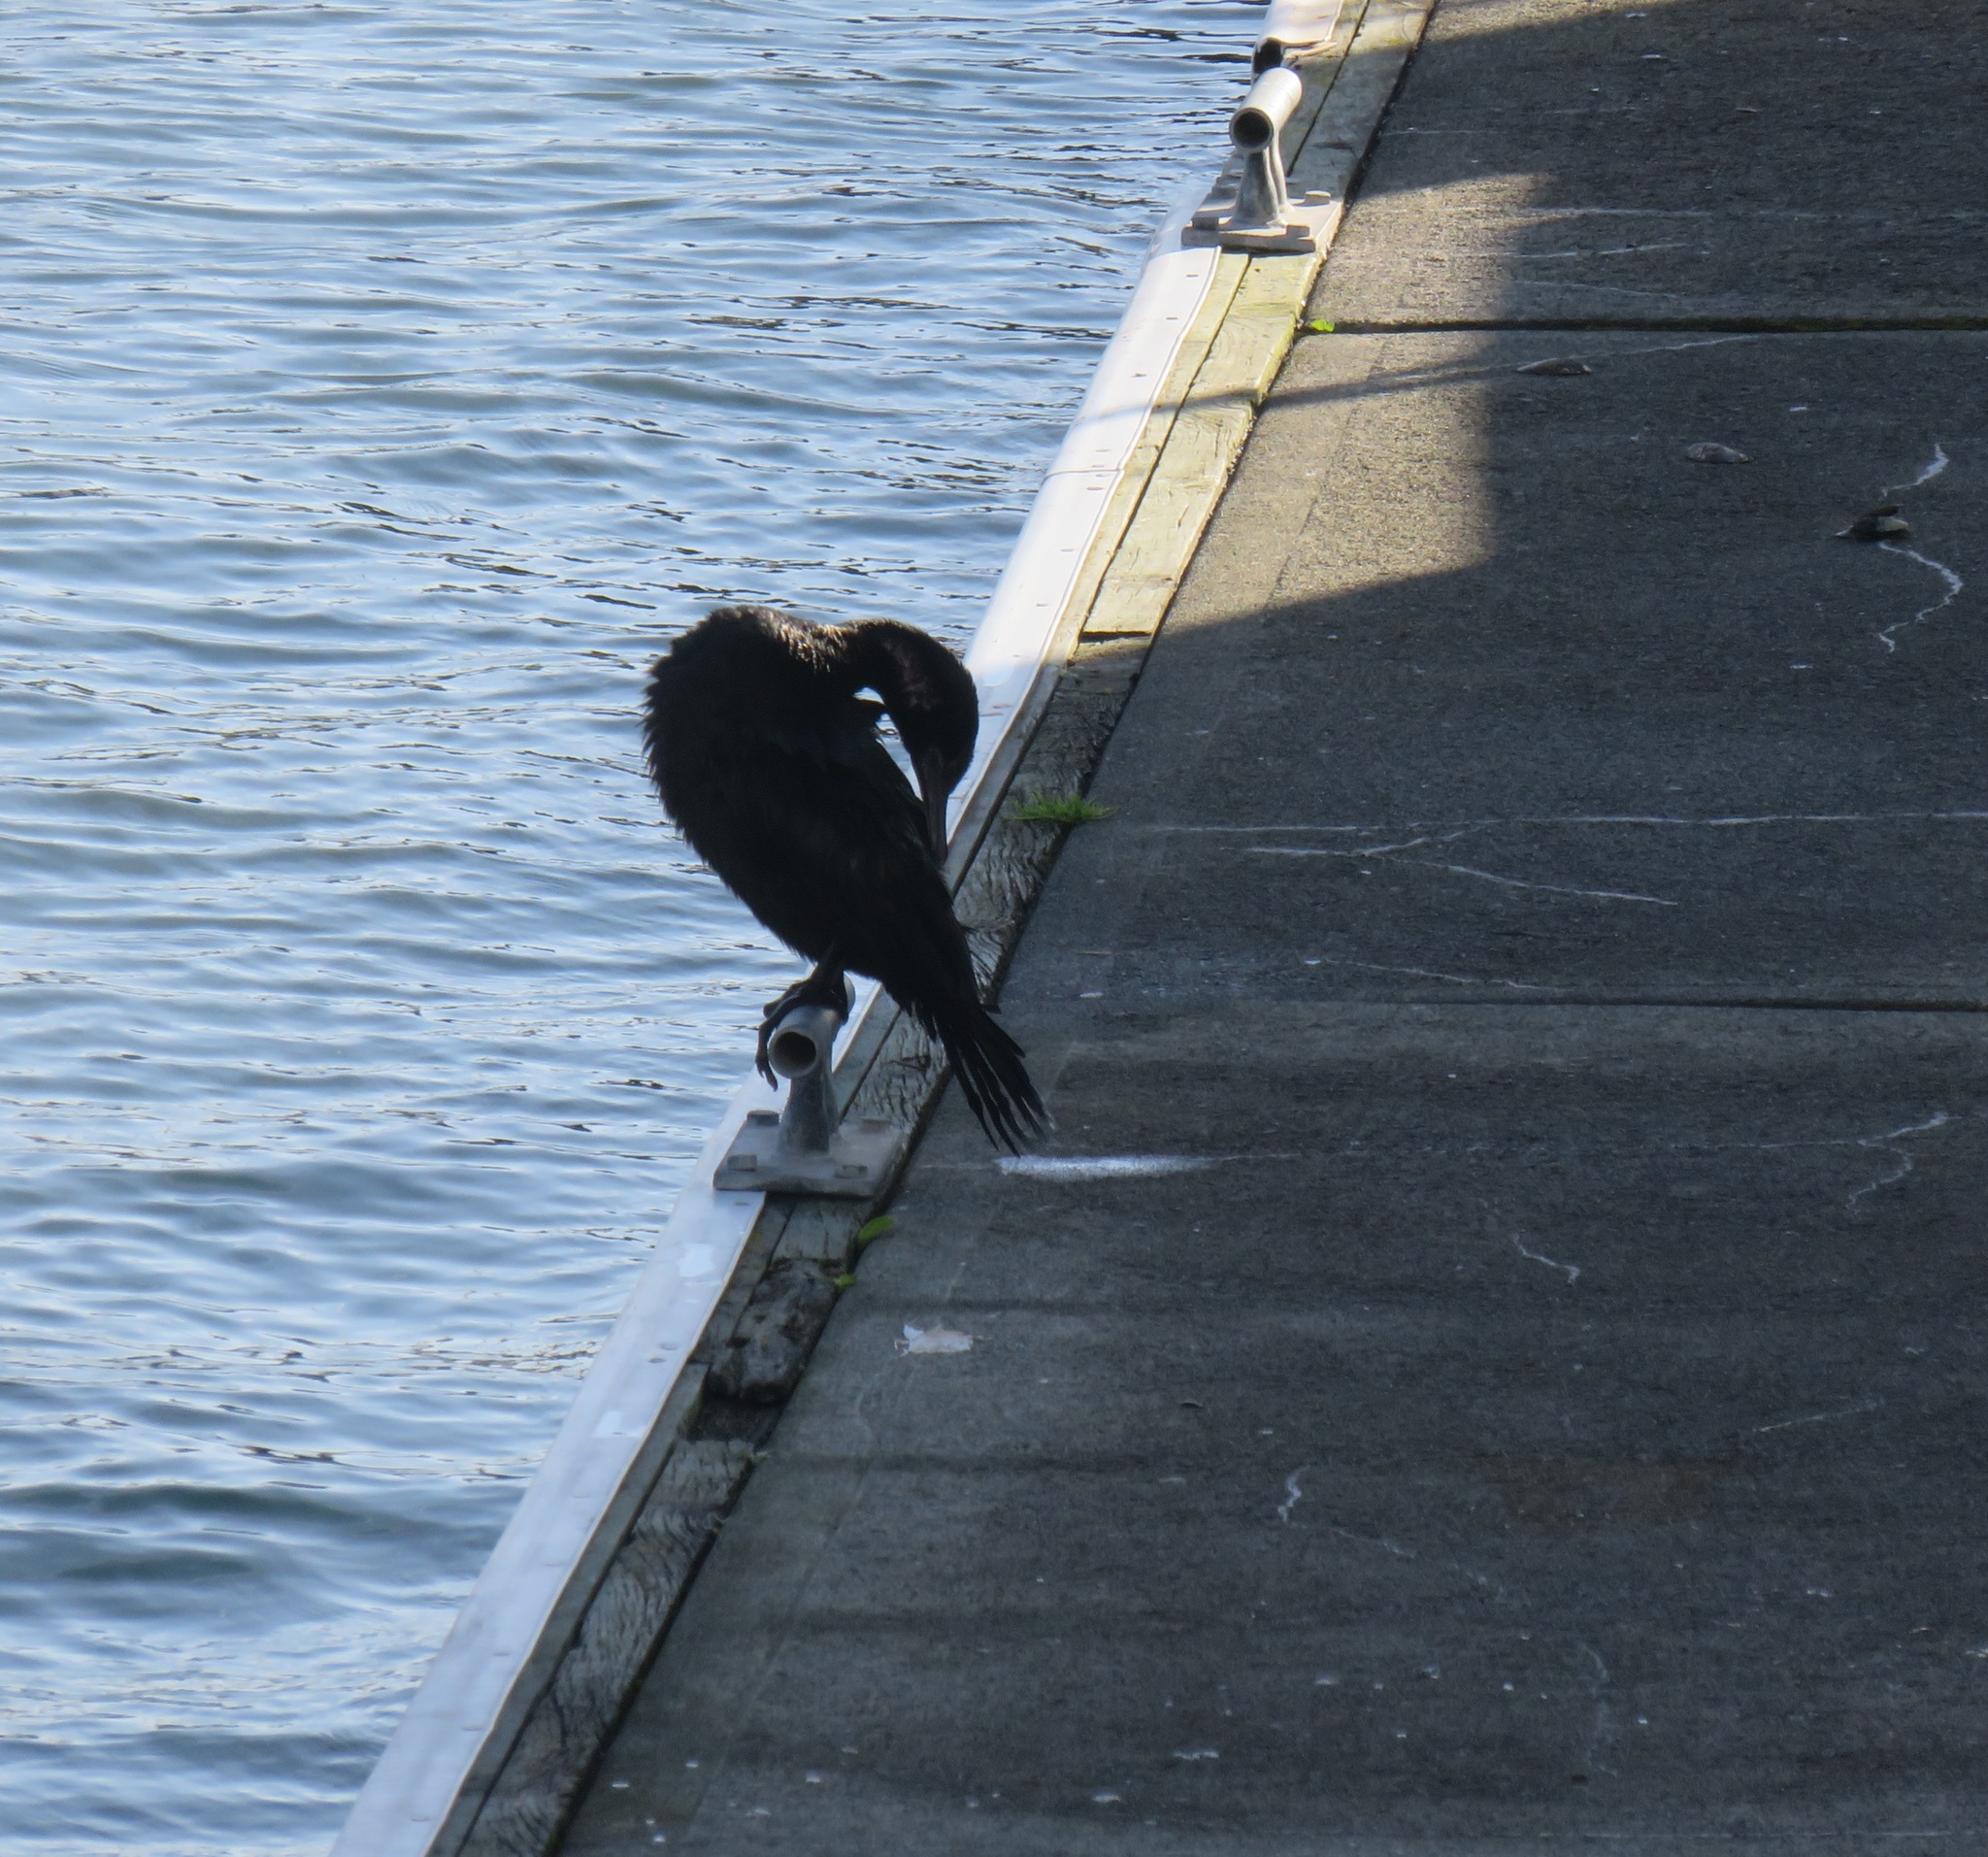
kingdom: Animalia
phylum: Chordata
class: Aves
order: Suliformes
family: Phalacrocoracidae
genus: Phalacrocorax
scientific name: Phalacrocorax sulcirostris
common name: Little black cormorant
